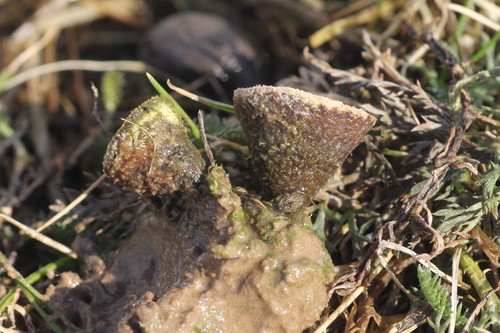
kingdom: Fungi
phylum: Basidiomycota
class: Agaricomycetes
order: Agaricales
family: Agaricaceae
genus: Cyathus
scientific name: Cyathus striatus
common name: Fluted bird's nest
